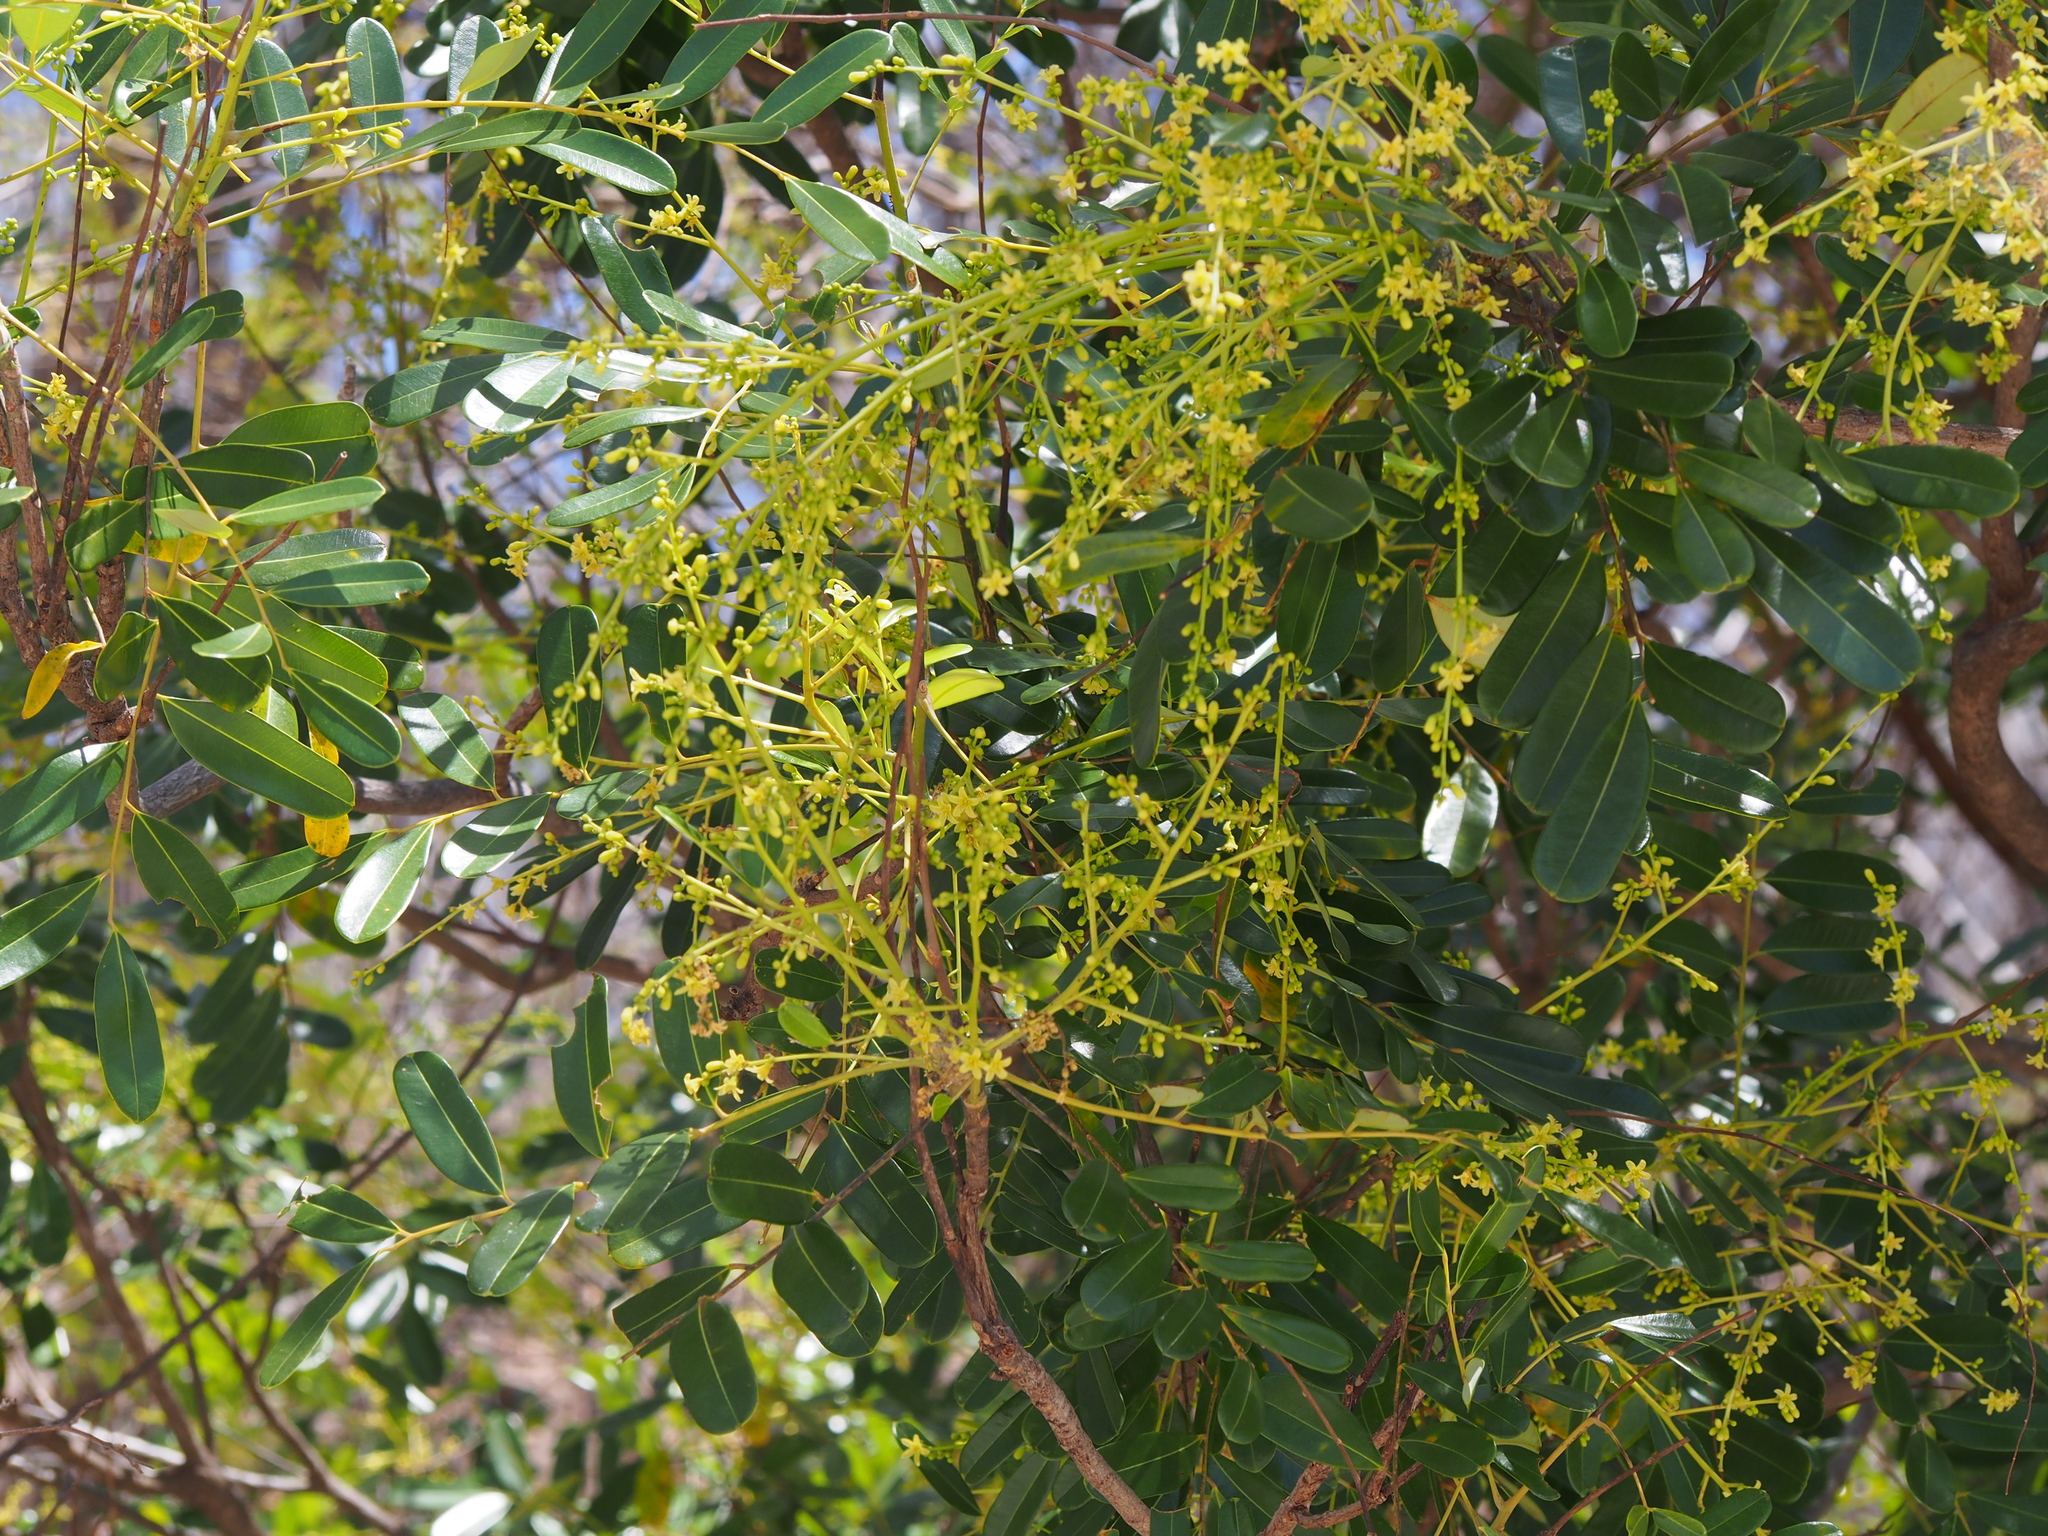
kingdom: Plantae
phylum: Tracheophyta
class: Magnoliopsida
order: Sapindales
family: Simaroubaceae
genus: Simarouba
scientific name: Simarouba amara
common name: Bitterwood
